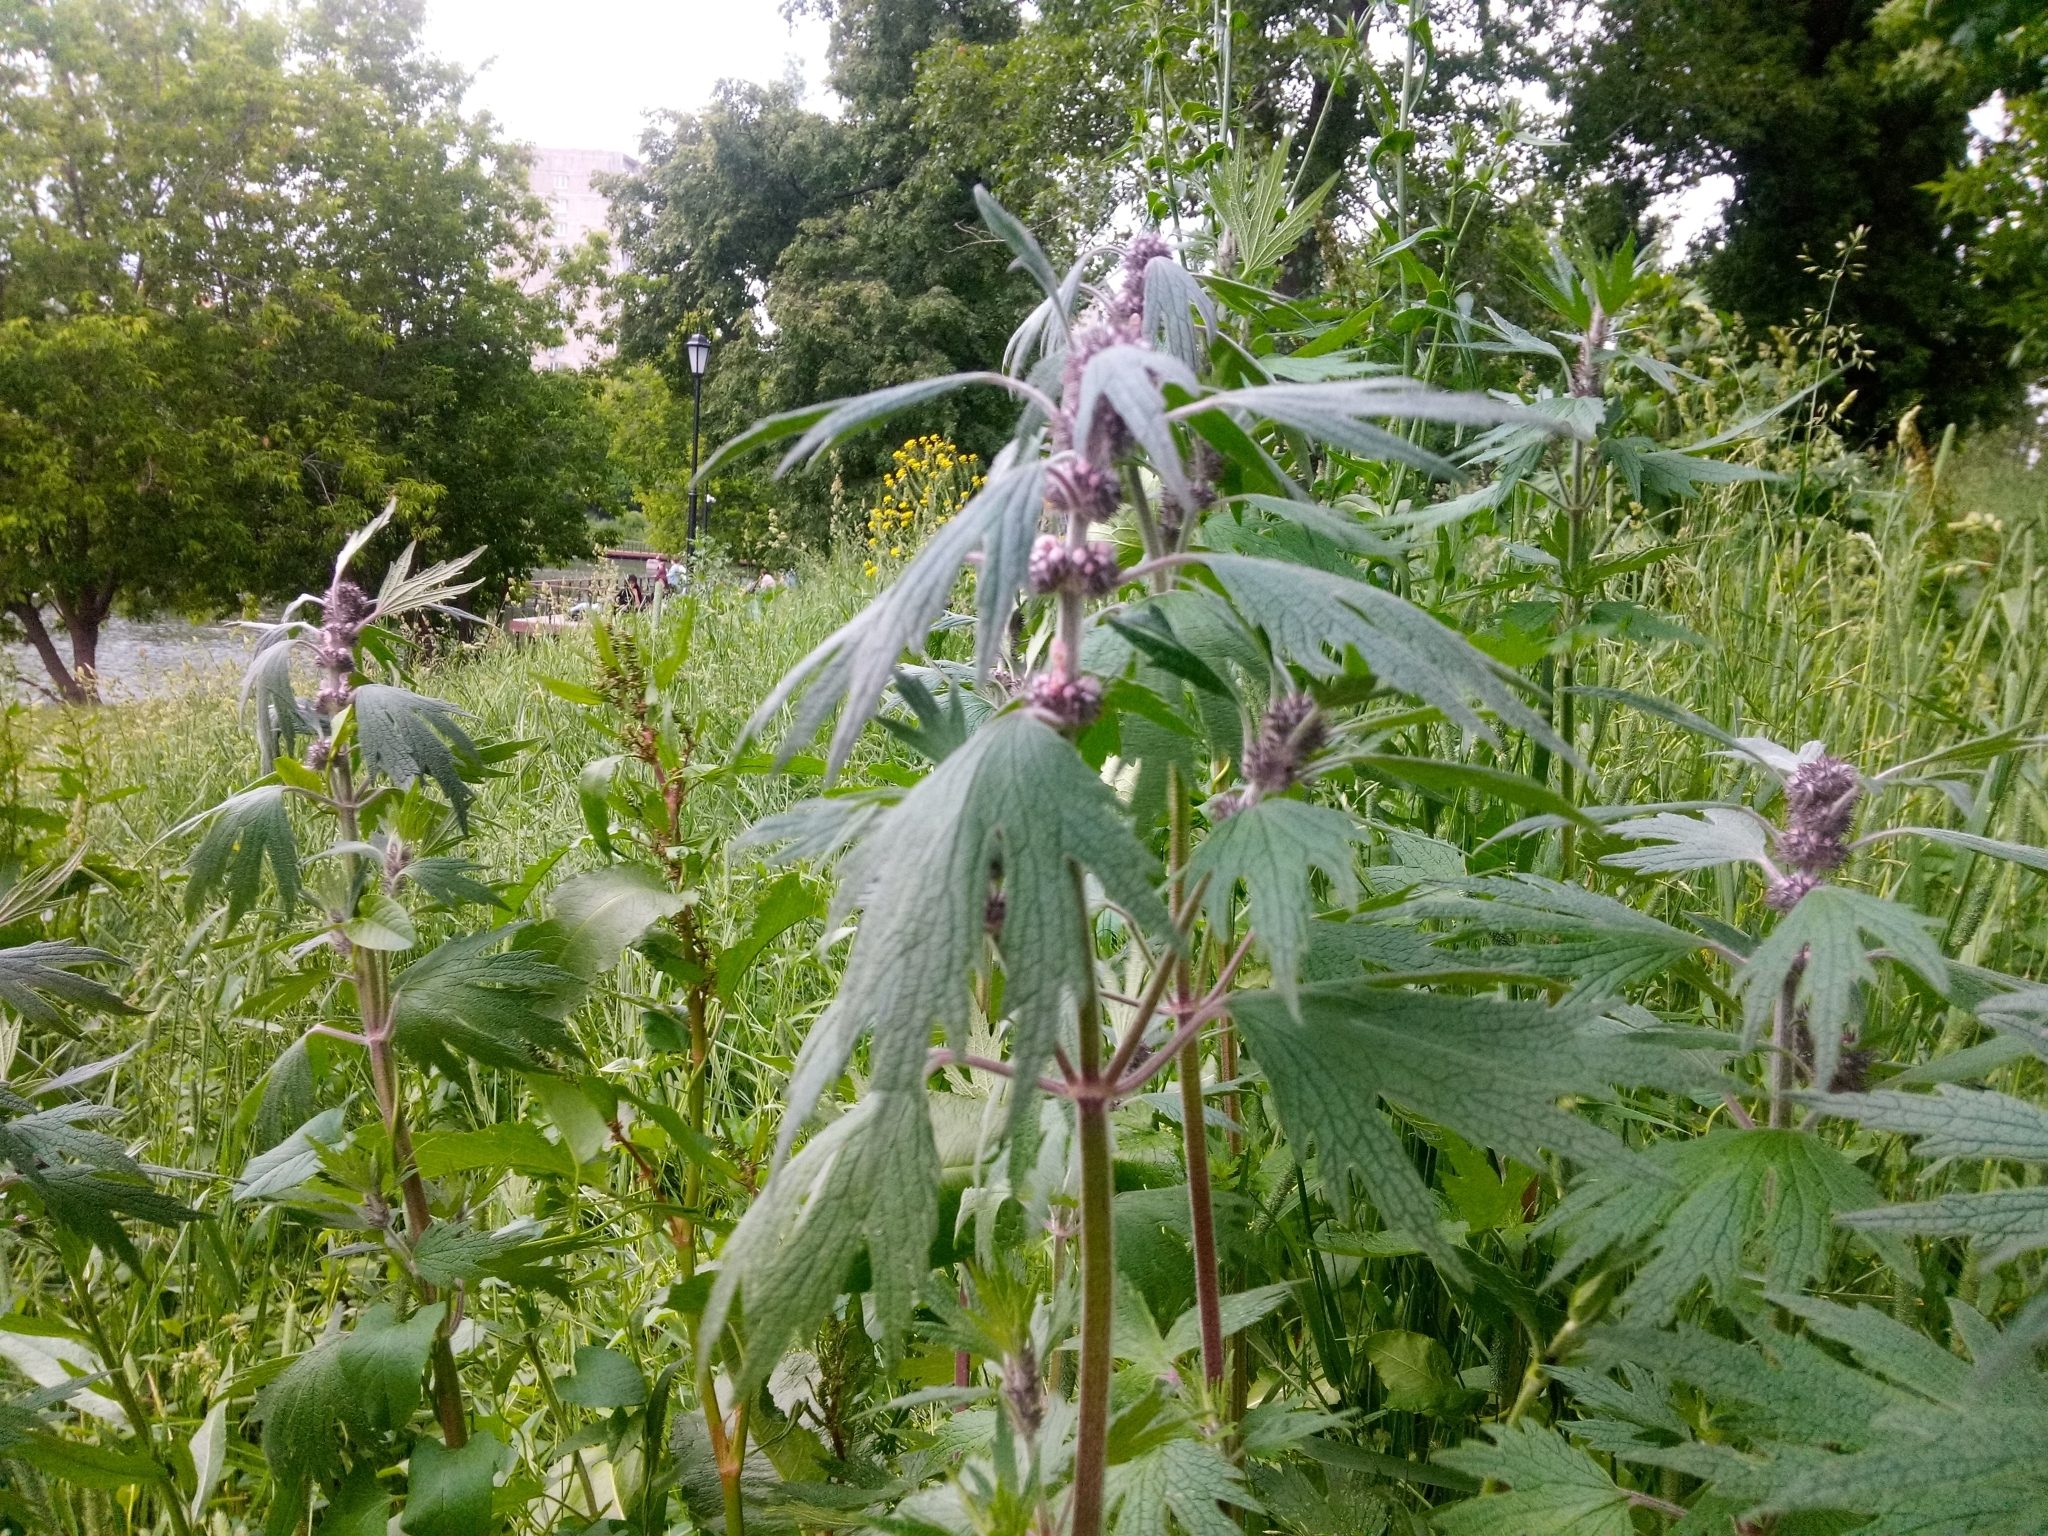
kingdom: Plantae
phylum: Tracheophyta
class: Magnoliopsida
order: Lamiales
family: Lamiaceae
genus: Leonurus
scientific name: Leonurus quinquelobatus
